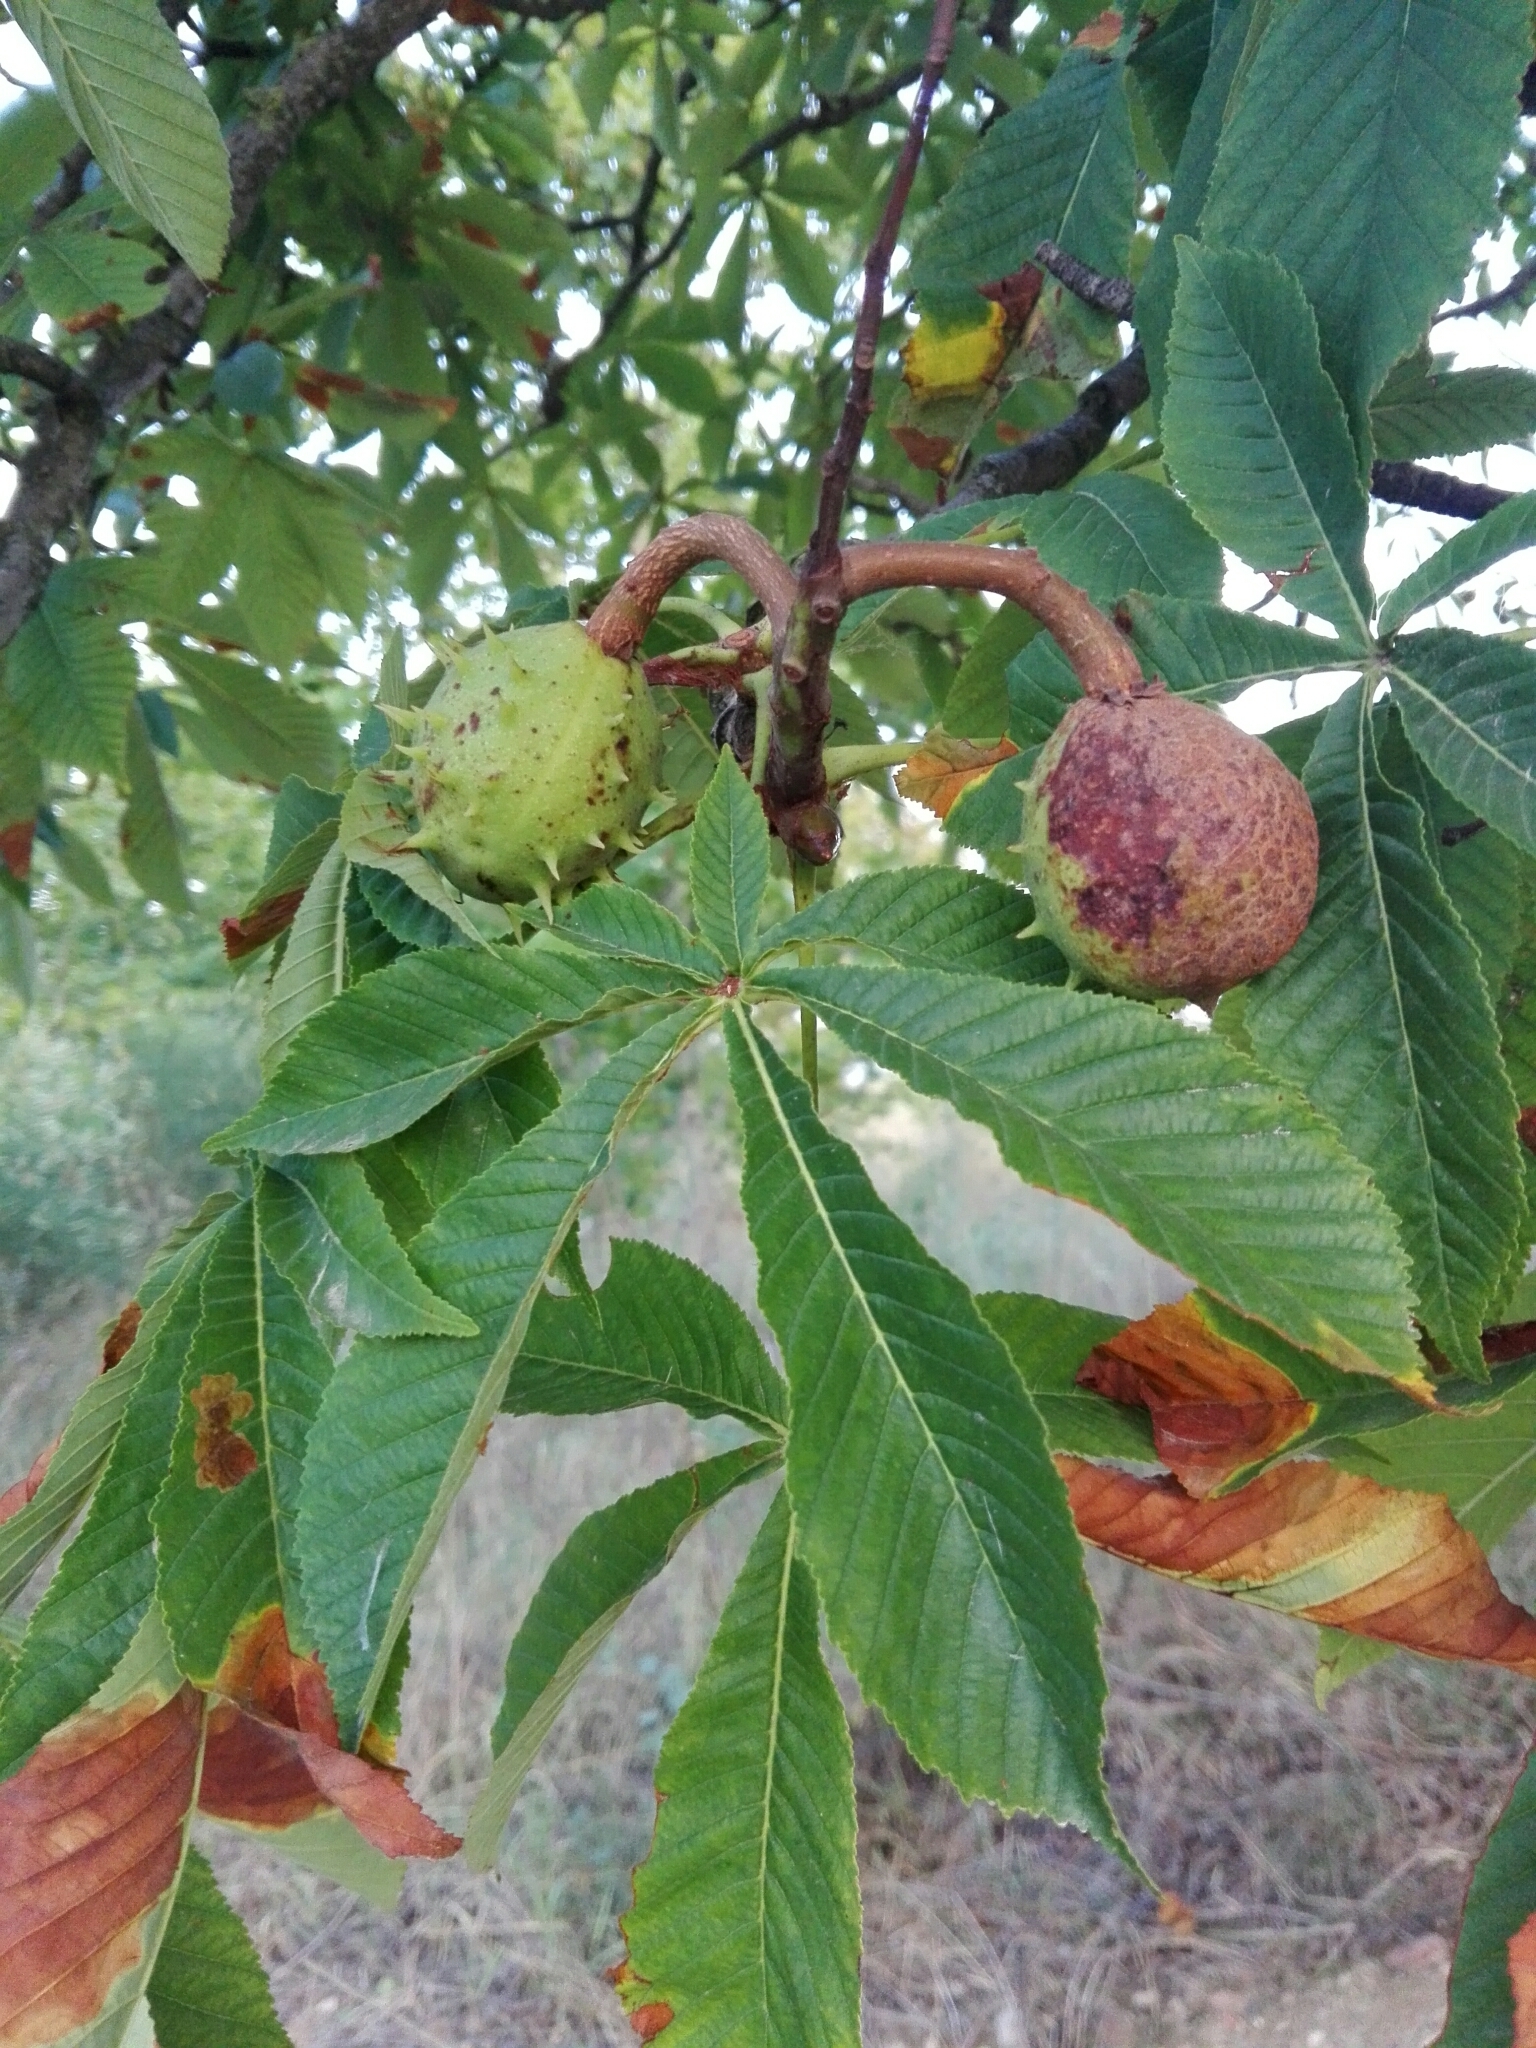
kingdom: Plantae
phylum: Tracheophyta
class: Magnoliopsida
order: Sapindales
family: Sapindaceae
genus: Aesculus
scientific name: Aesculus hippocastanum
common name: Horse-chestnut
